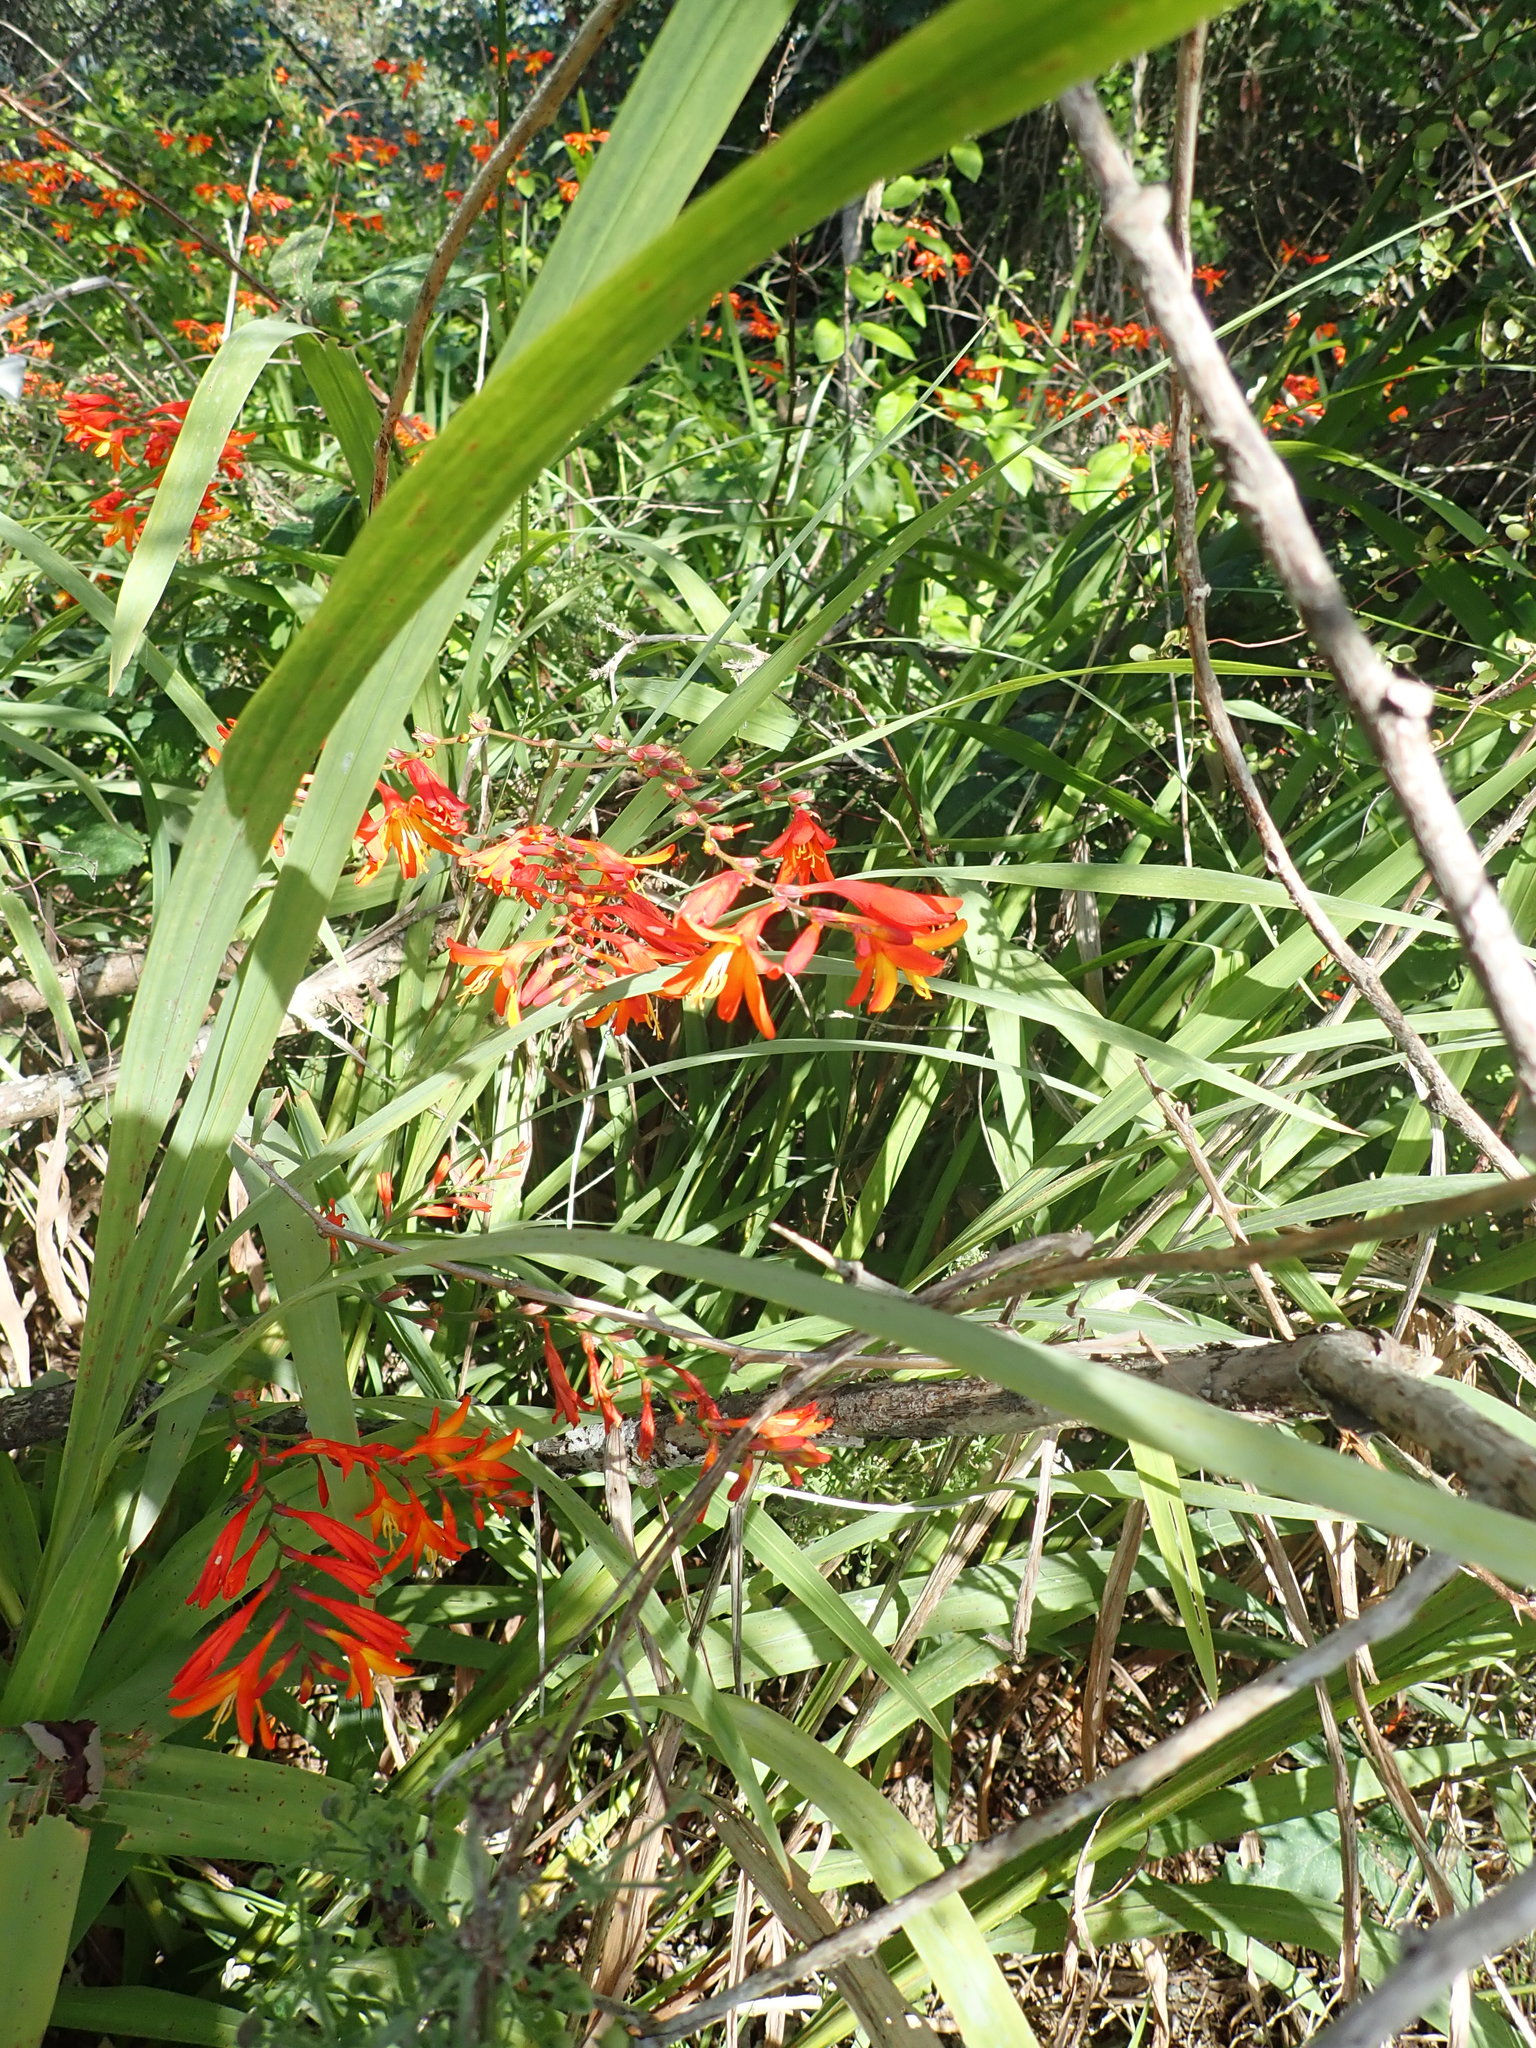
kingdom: Plantae
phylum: Tracheophyta
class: Liliopsida
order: Asparagales
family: Iridaceae
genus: Crocosmia
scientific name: Crocosmia crocosmiiflora
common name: Montbretia
